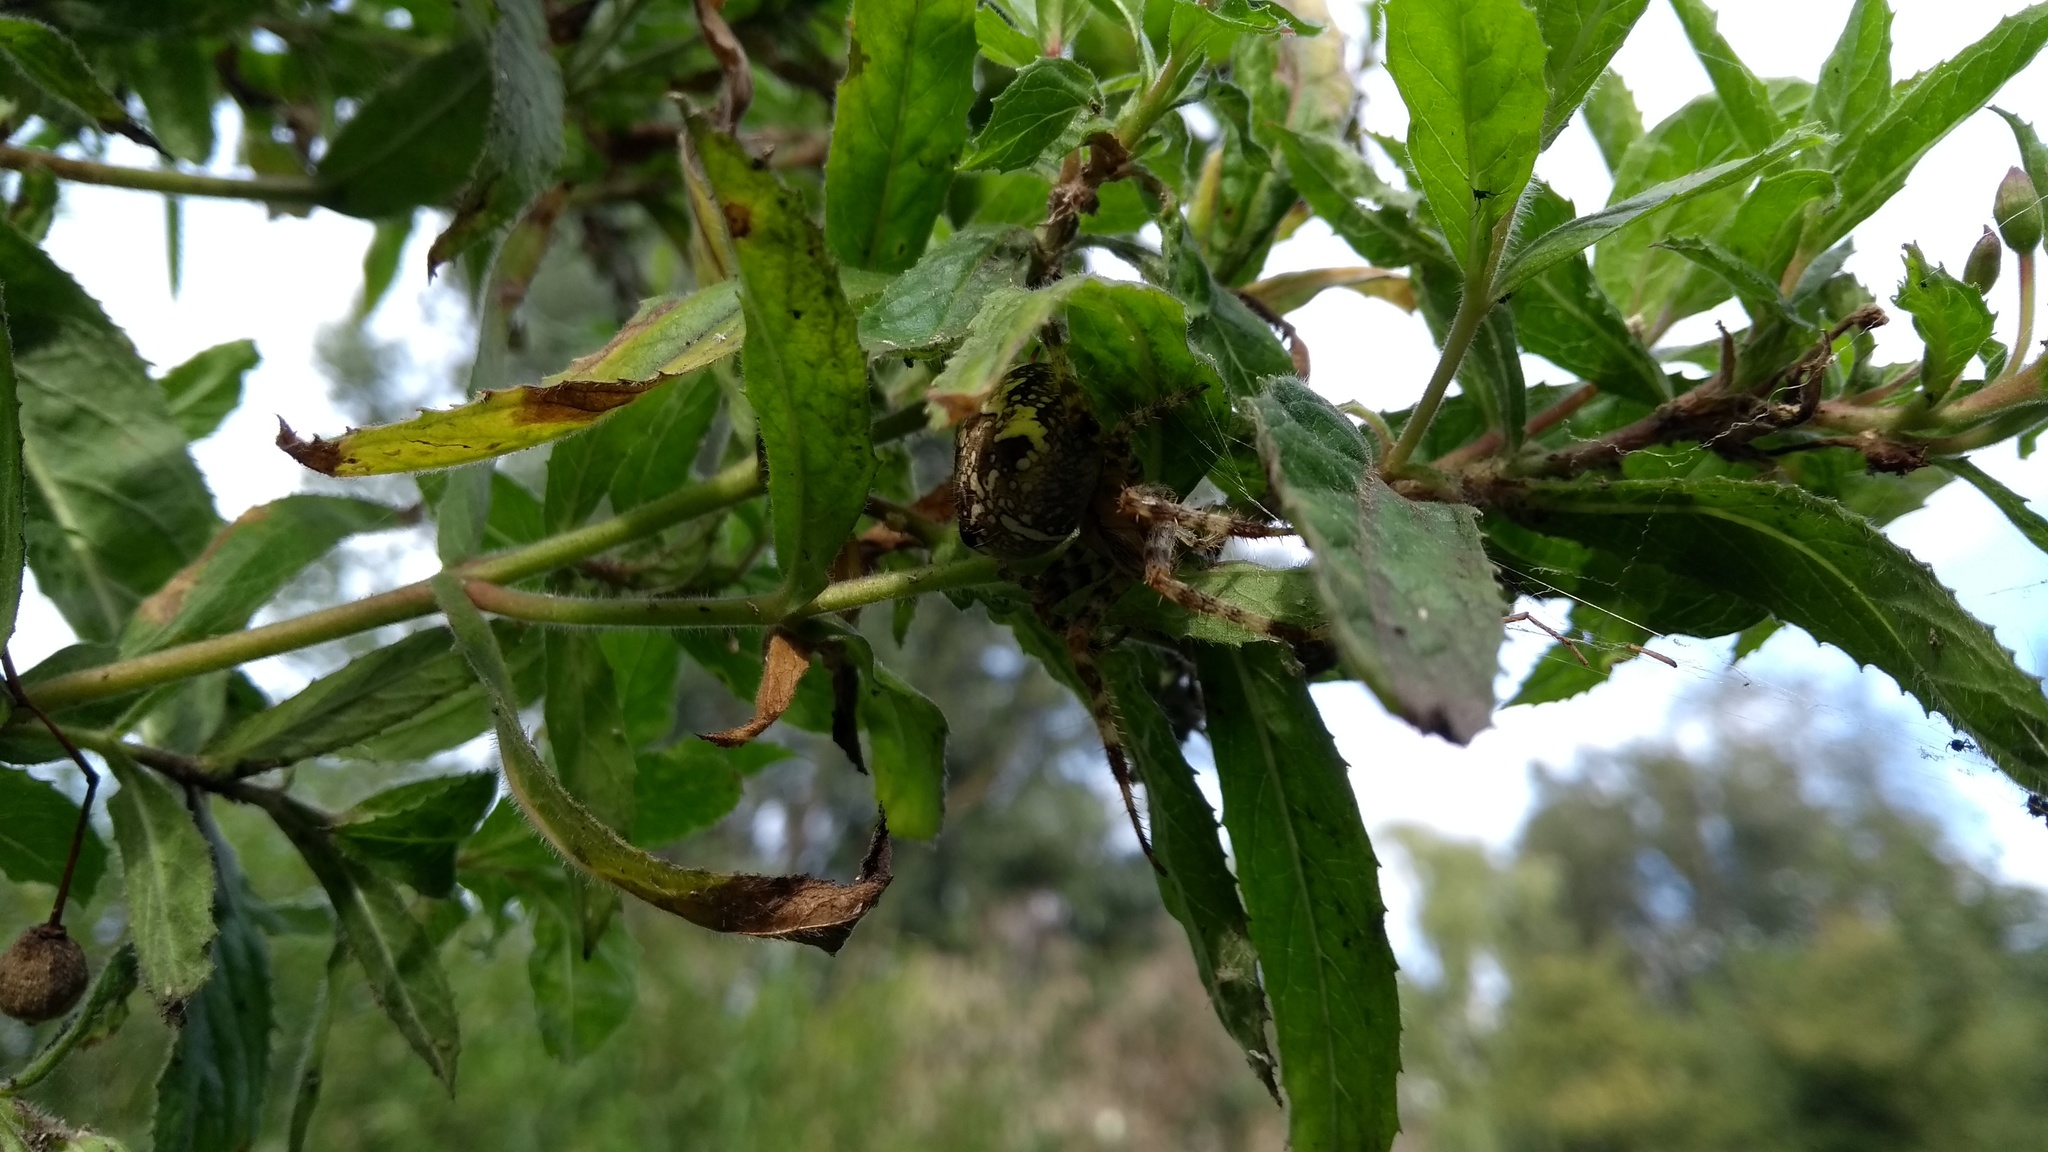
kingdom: Animalia
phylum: Arthropoda
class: Arachnida
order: Araneae
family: Araneidae
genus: Araneus
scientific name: Araneus diadematus
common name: Cross orbweaver
